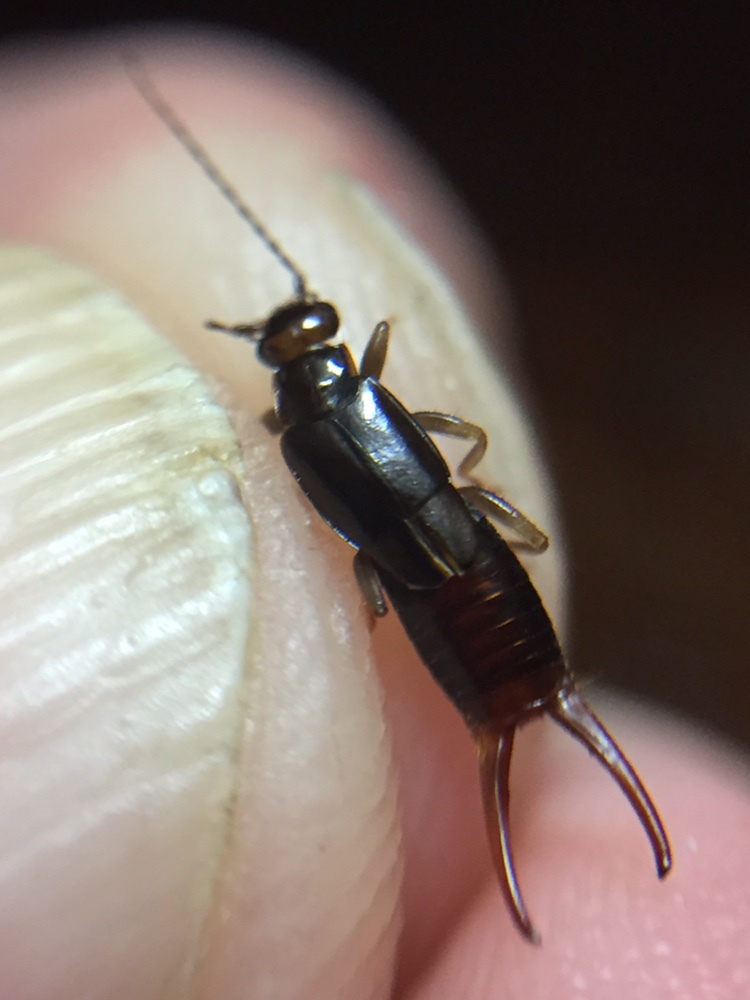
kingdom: Animalia
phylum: Arthropoda
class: Insecta
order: Dermaptera
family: Spongiphoridae
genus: Nesogaster
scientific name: Nesogaster halli
